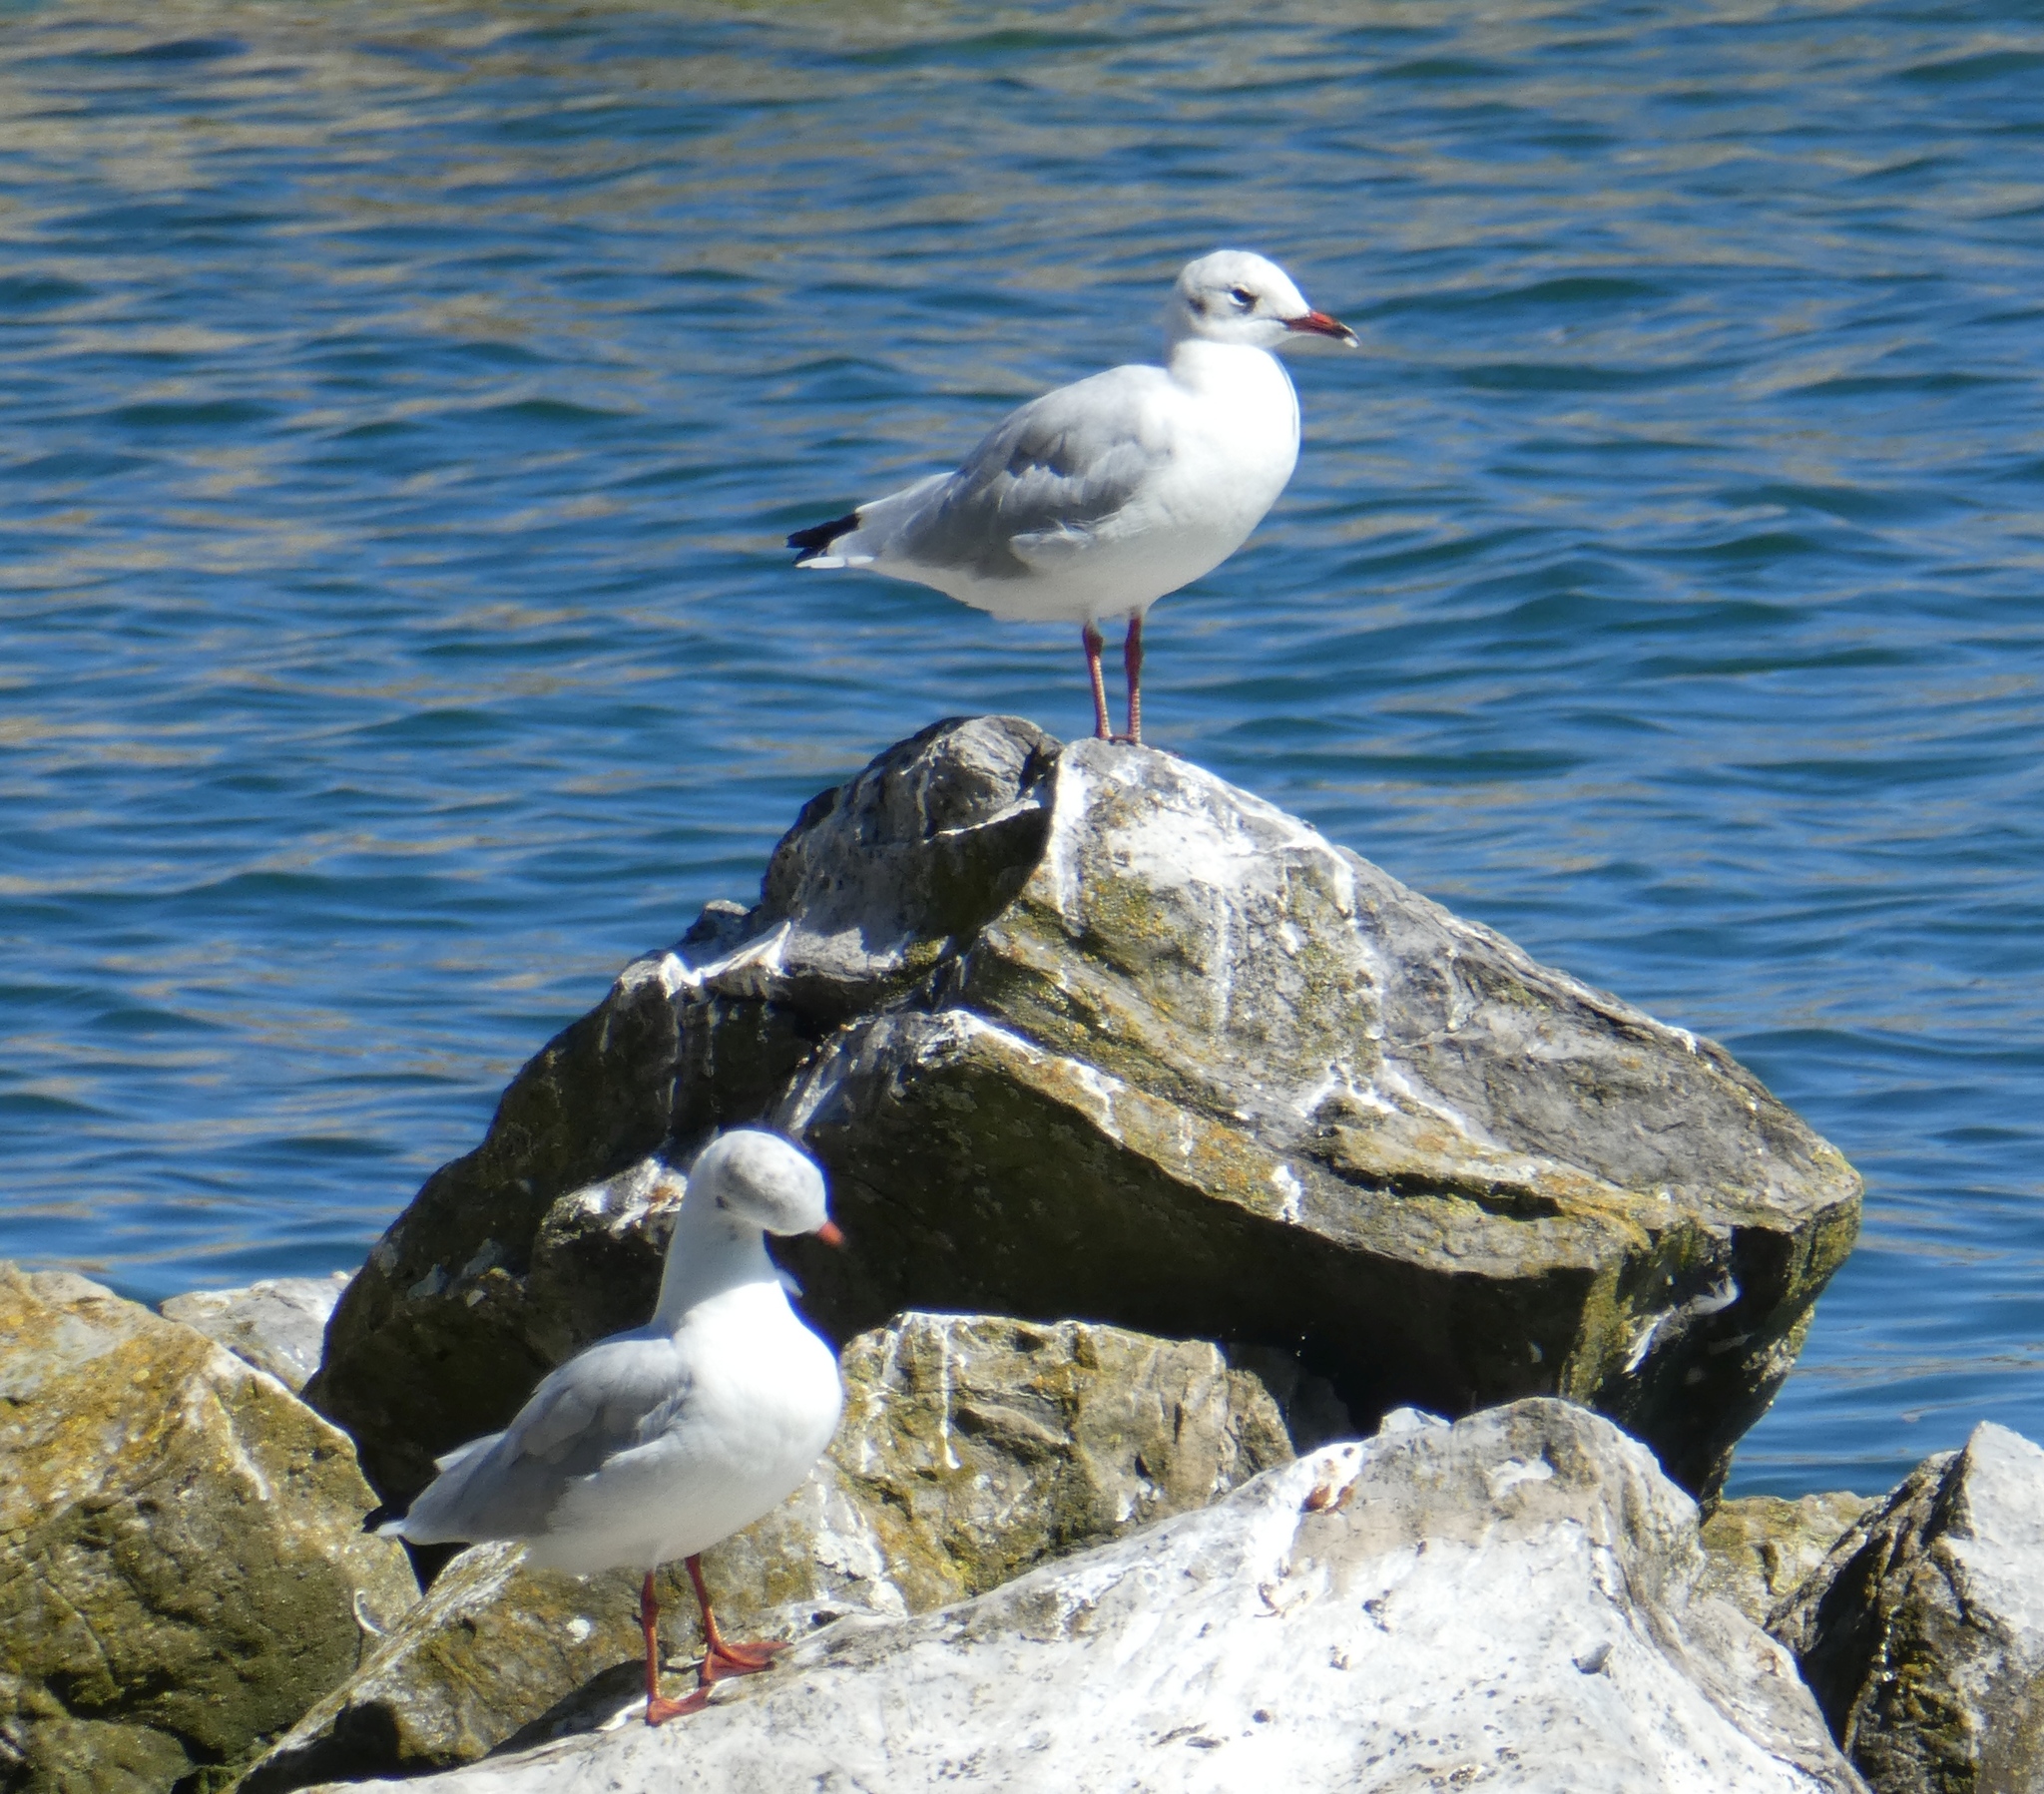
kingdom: Animalia
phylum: Chordata
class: Aves
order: Charadriiformes
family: Laridae
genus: Chroicocephalus
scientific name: Chroicocephalus ridibundus
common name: Black-headed gull
